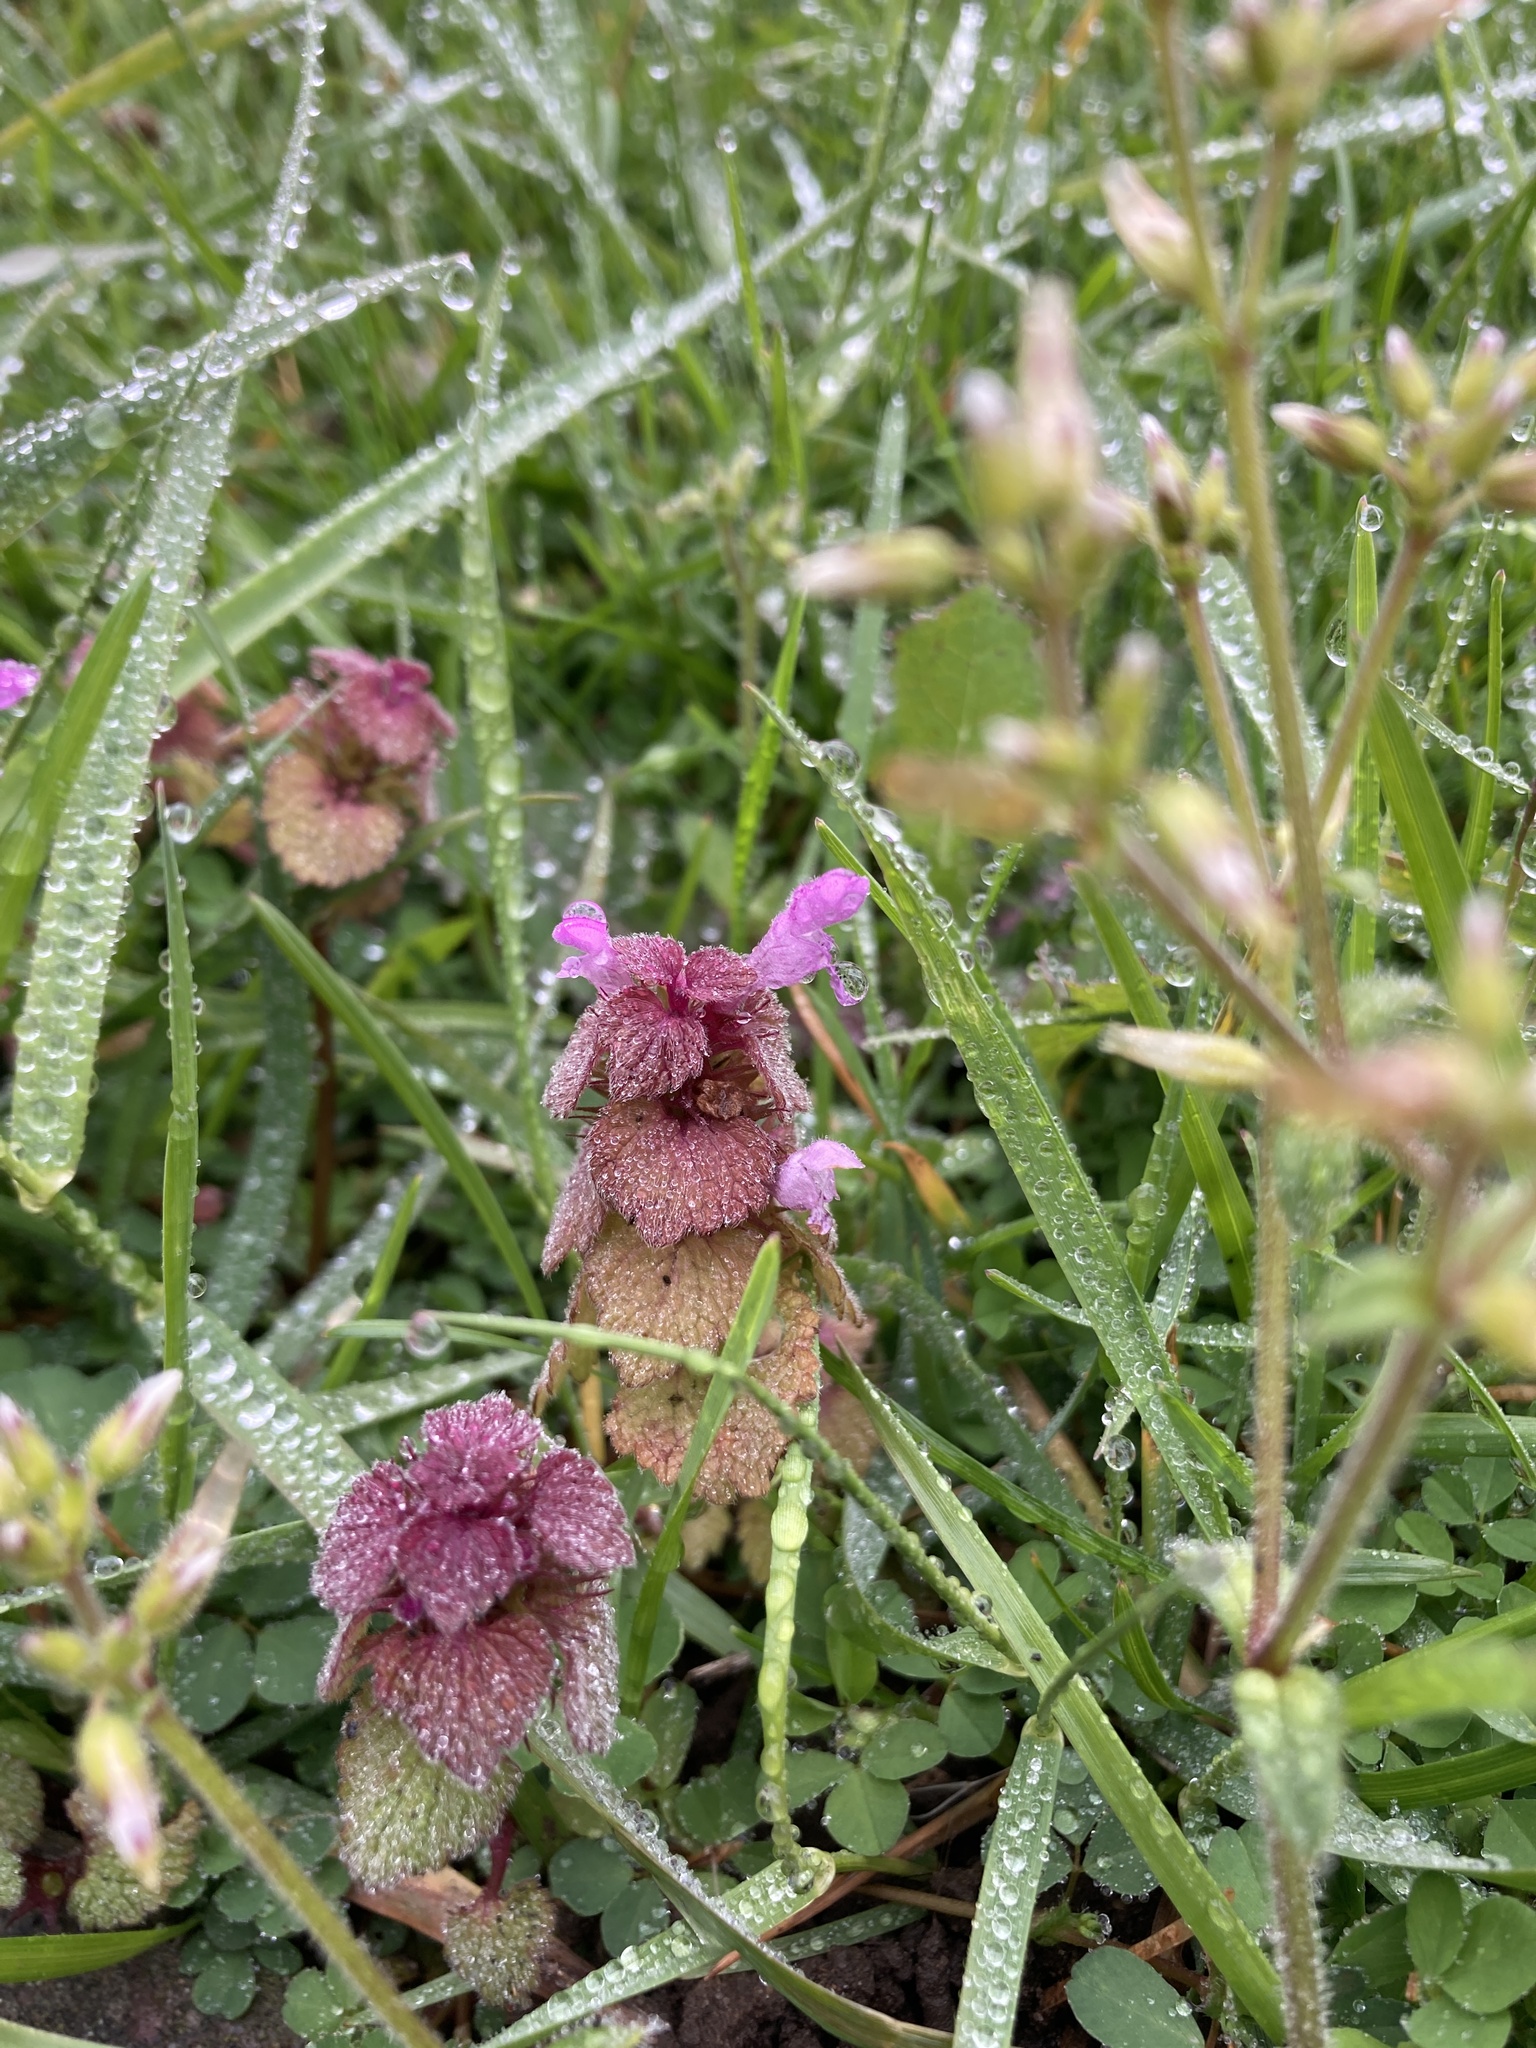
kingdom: Plantae
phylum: Tracheophyta
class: Magnoliopsida
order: Lamiales
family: Lamiaceae
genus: Lamium
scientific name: Lamium purpureum
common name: Red dead-nettle
